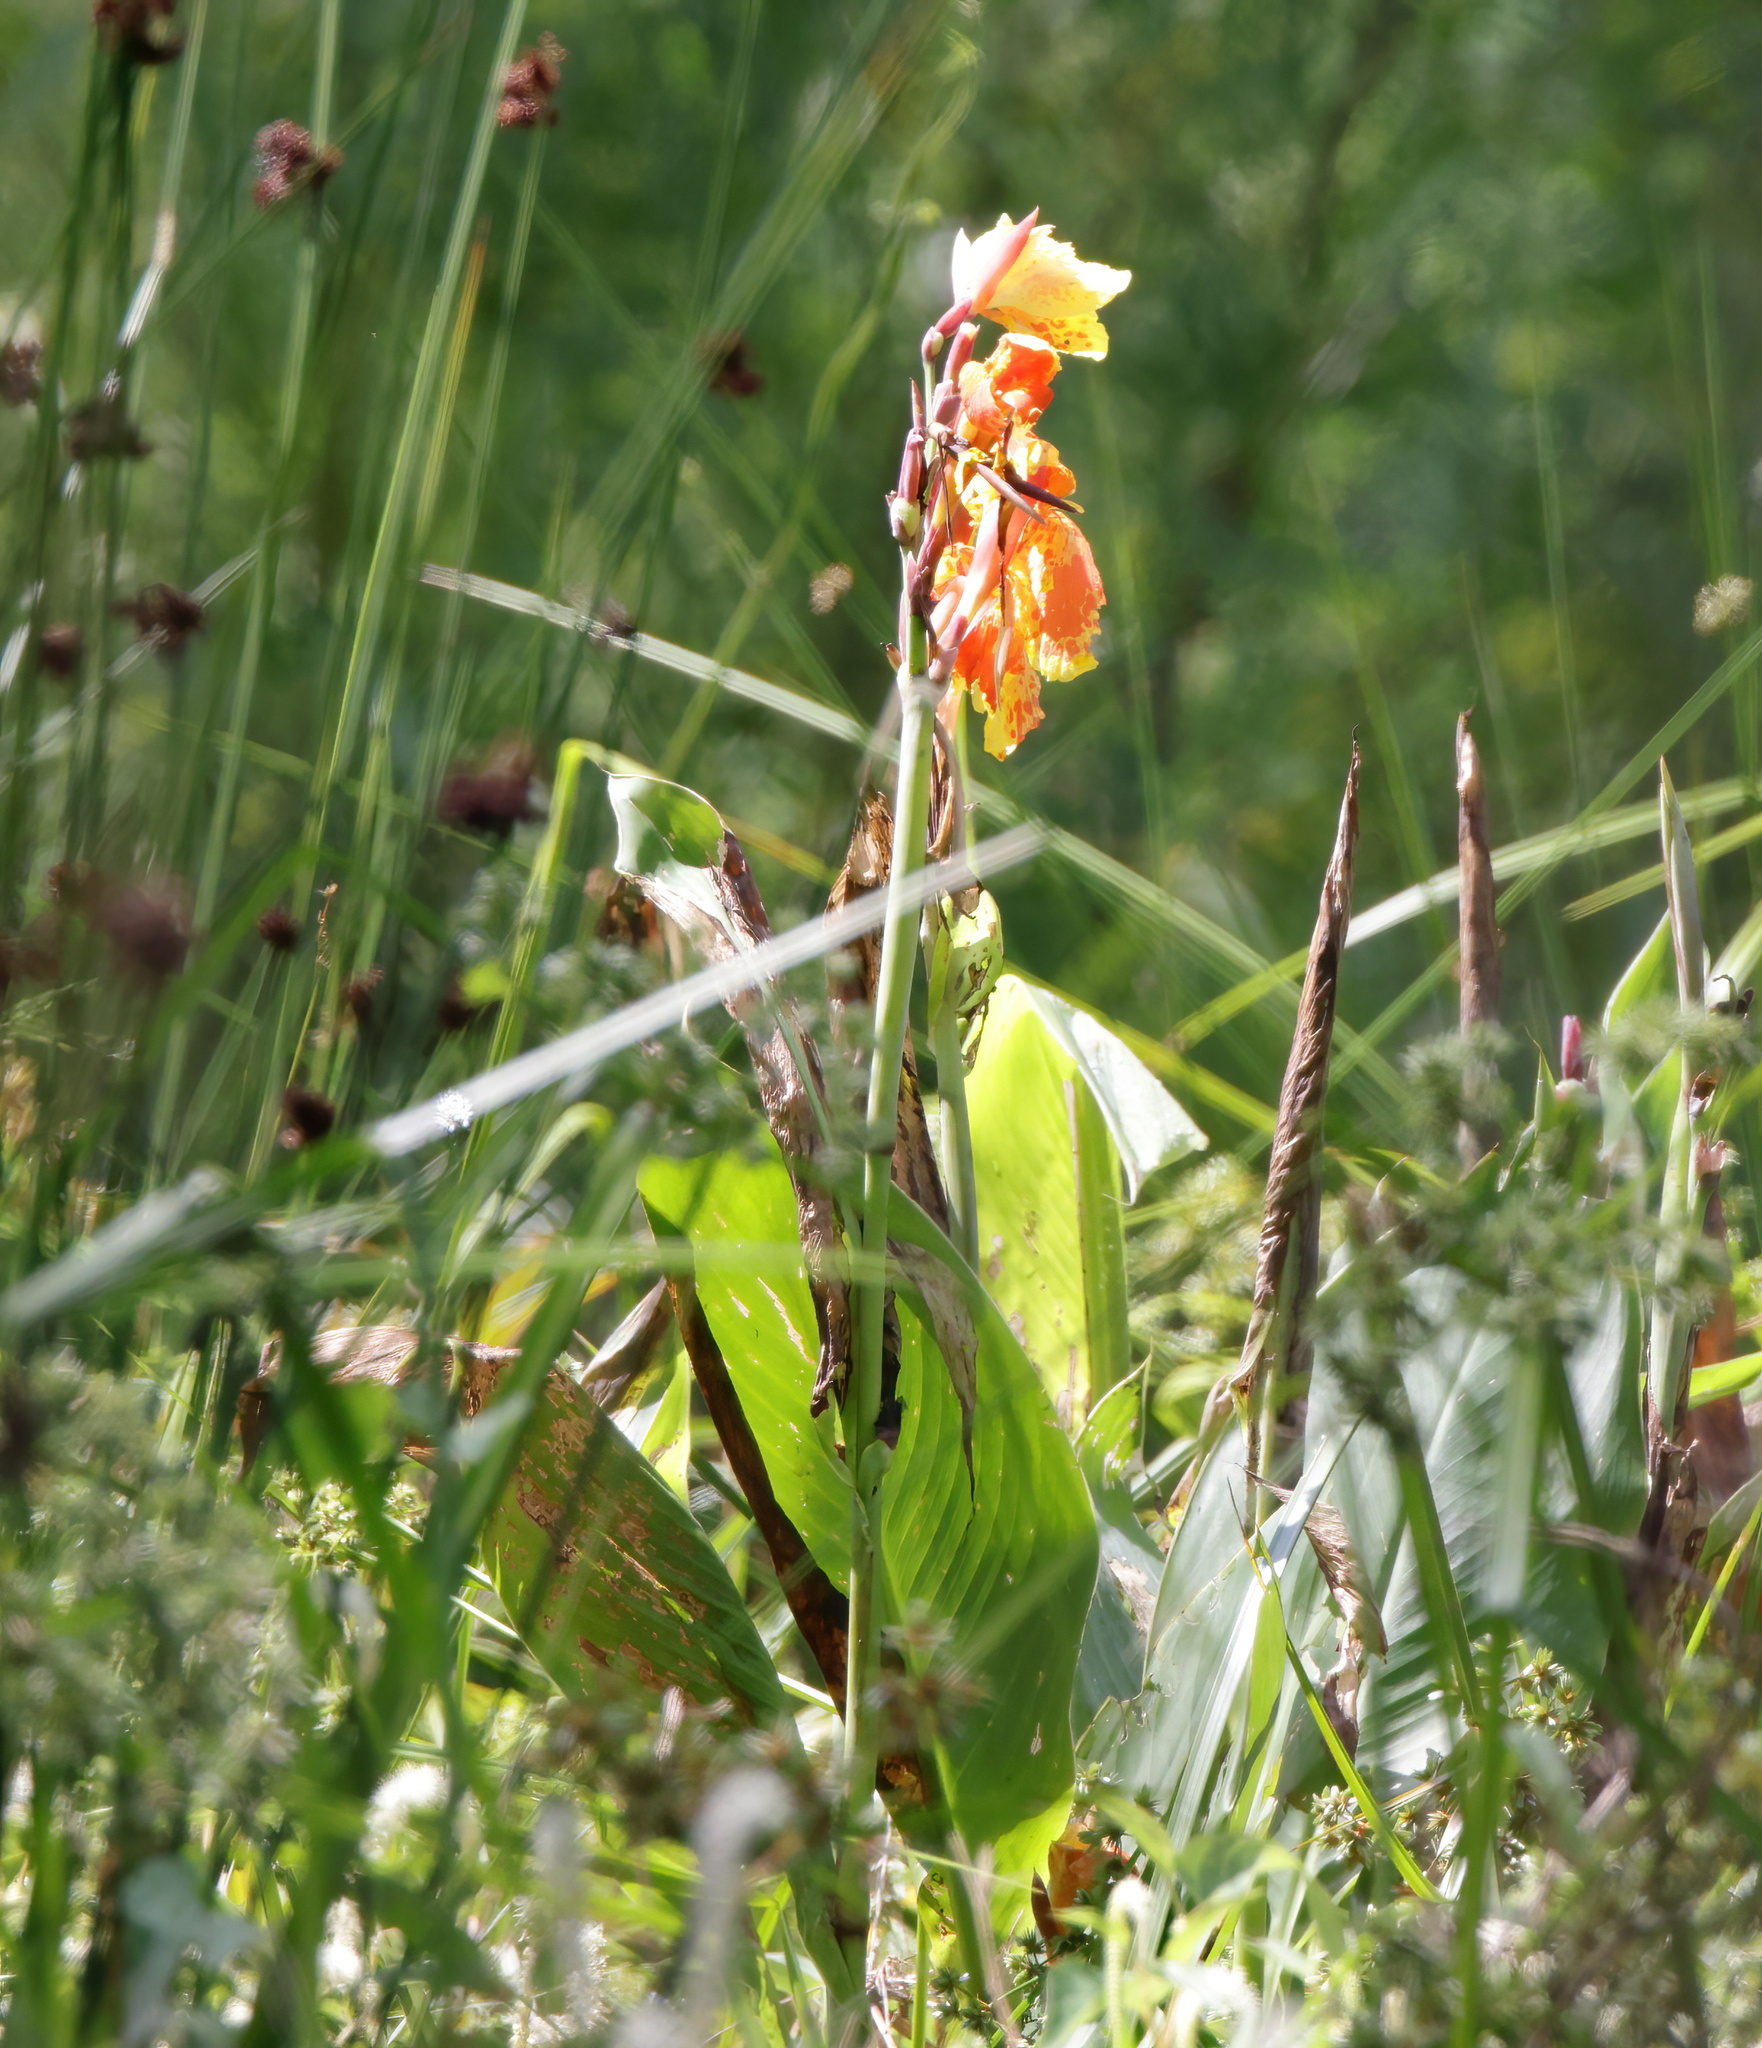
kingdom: Plantae
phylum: Tracheophyta
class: Liliopsida
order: Zingiberales
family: Cannaceae
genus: Canna
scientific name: Canna hybrida
